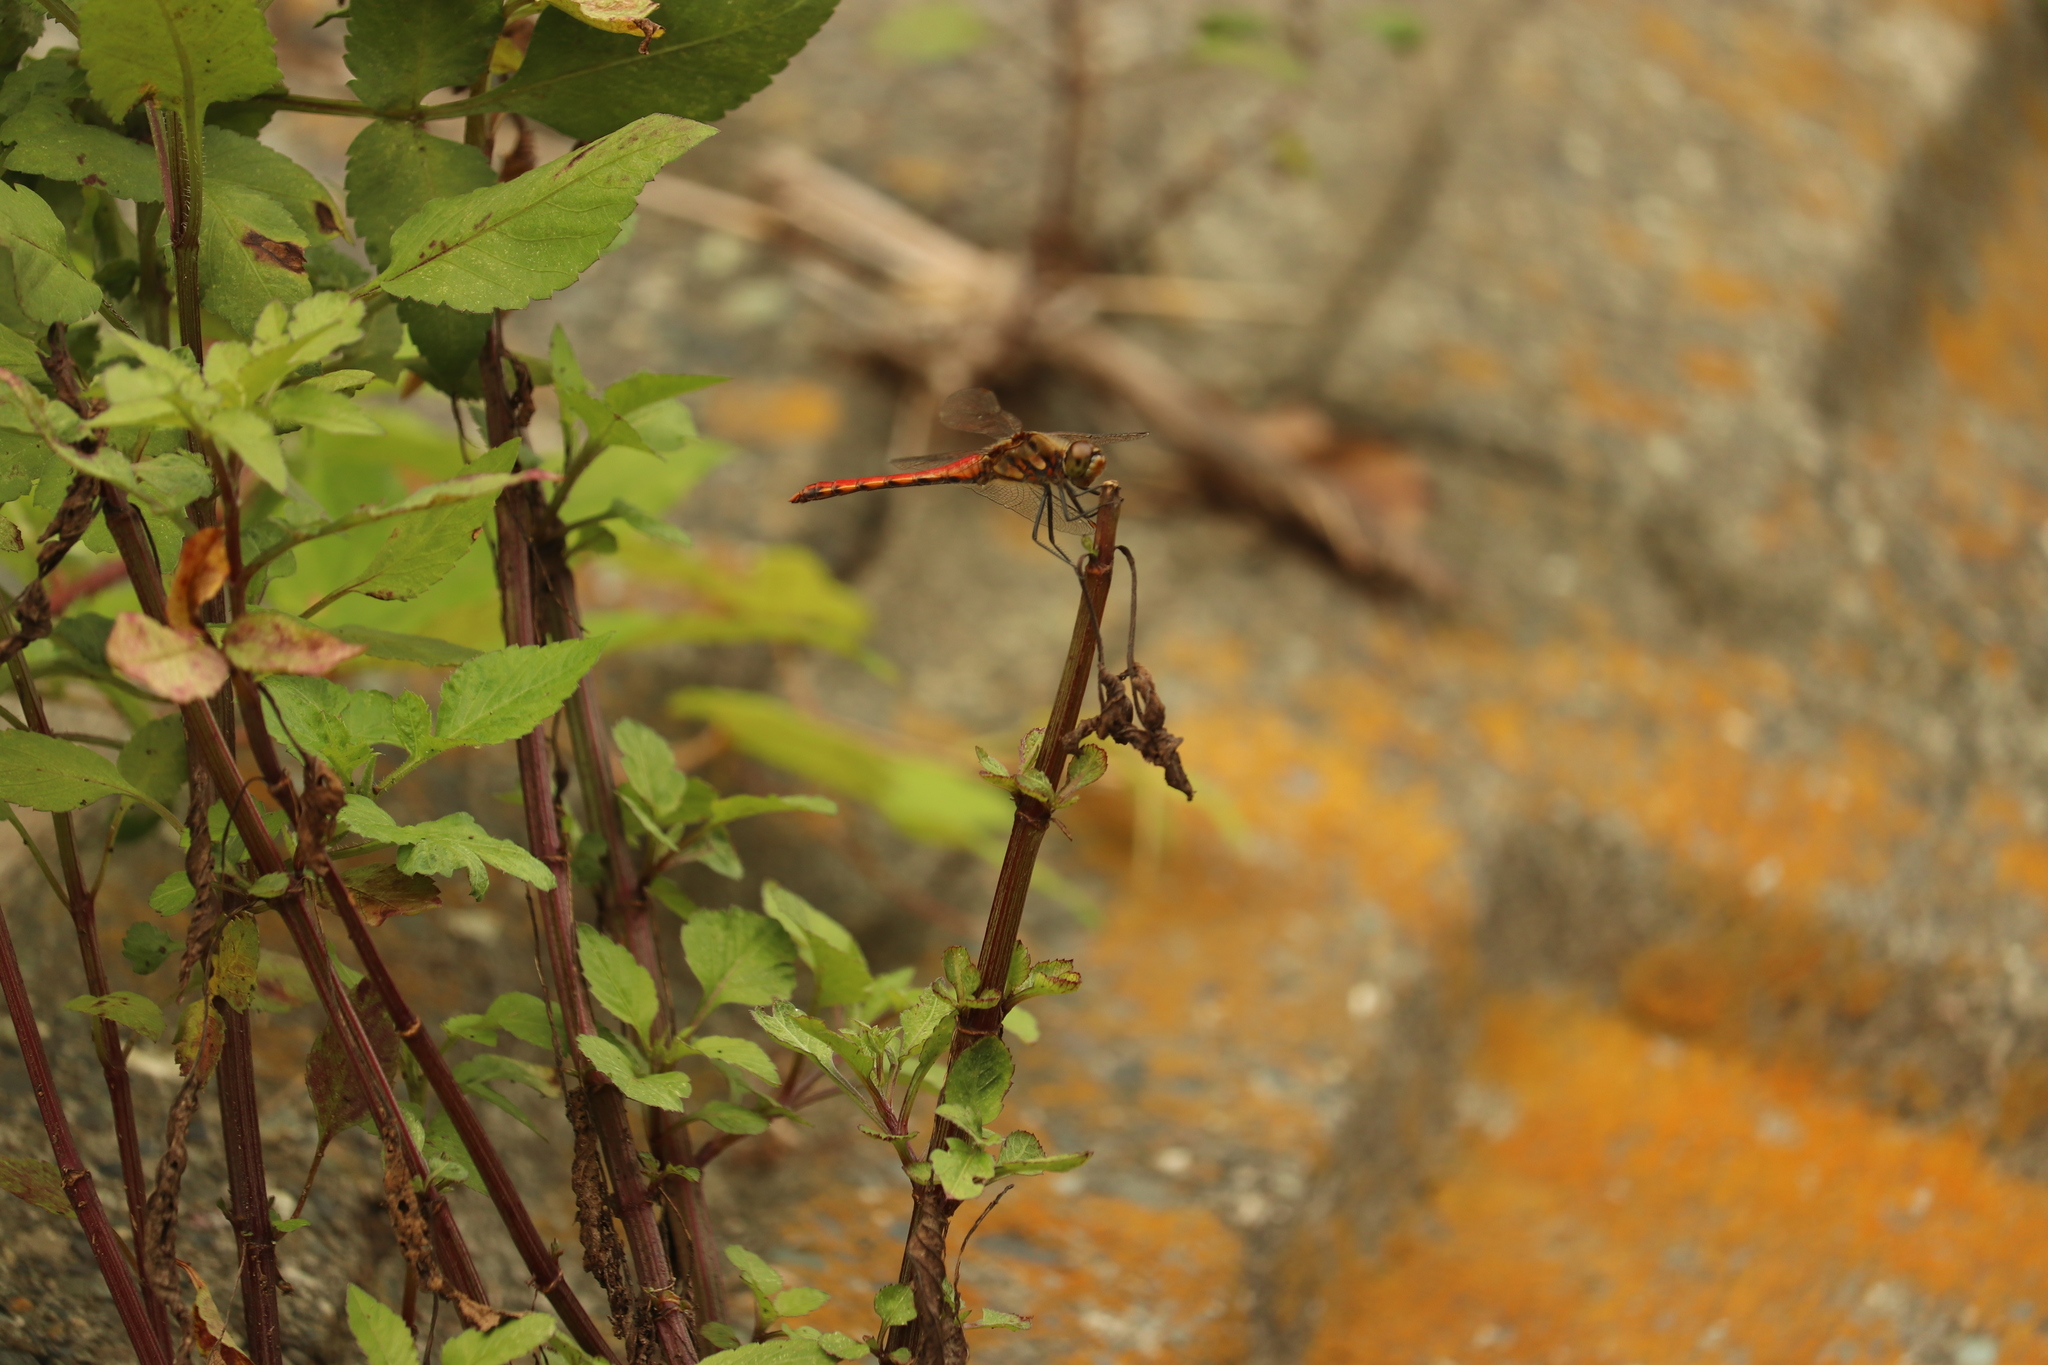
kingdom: Animalia
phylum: Arthropoda
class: Insecta
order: Odonata
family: Libellulidae
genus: Sympetrum
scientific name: Sympetrum frequens
